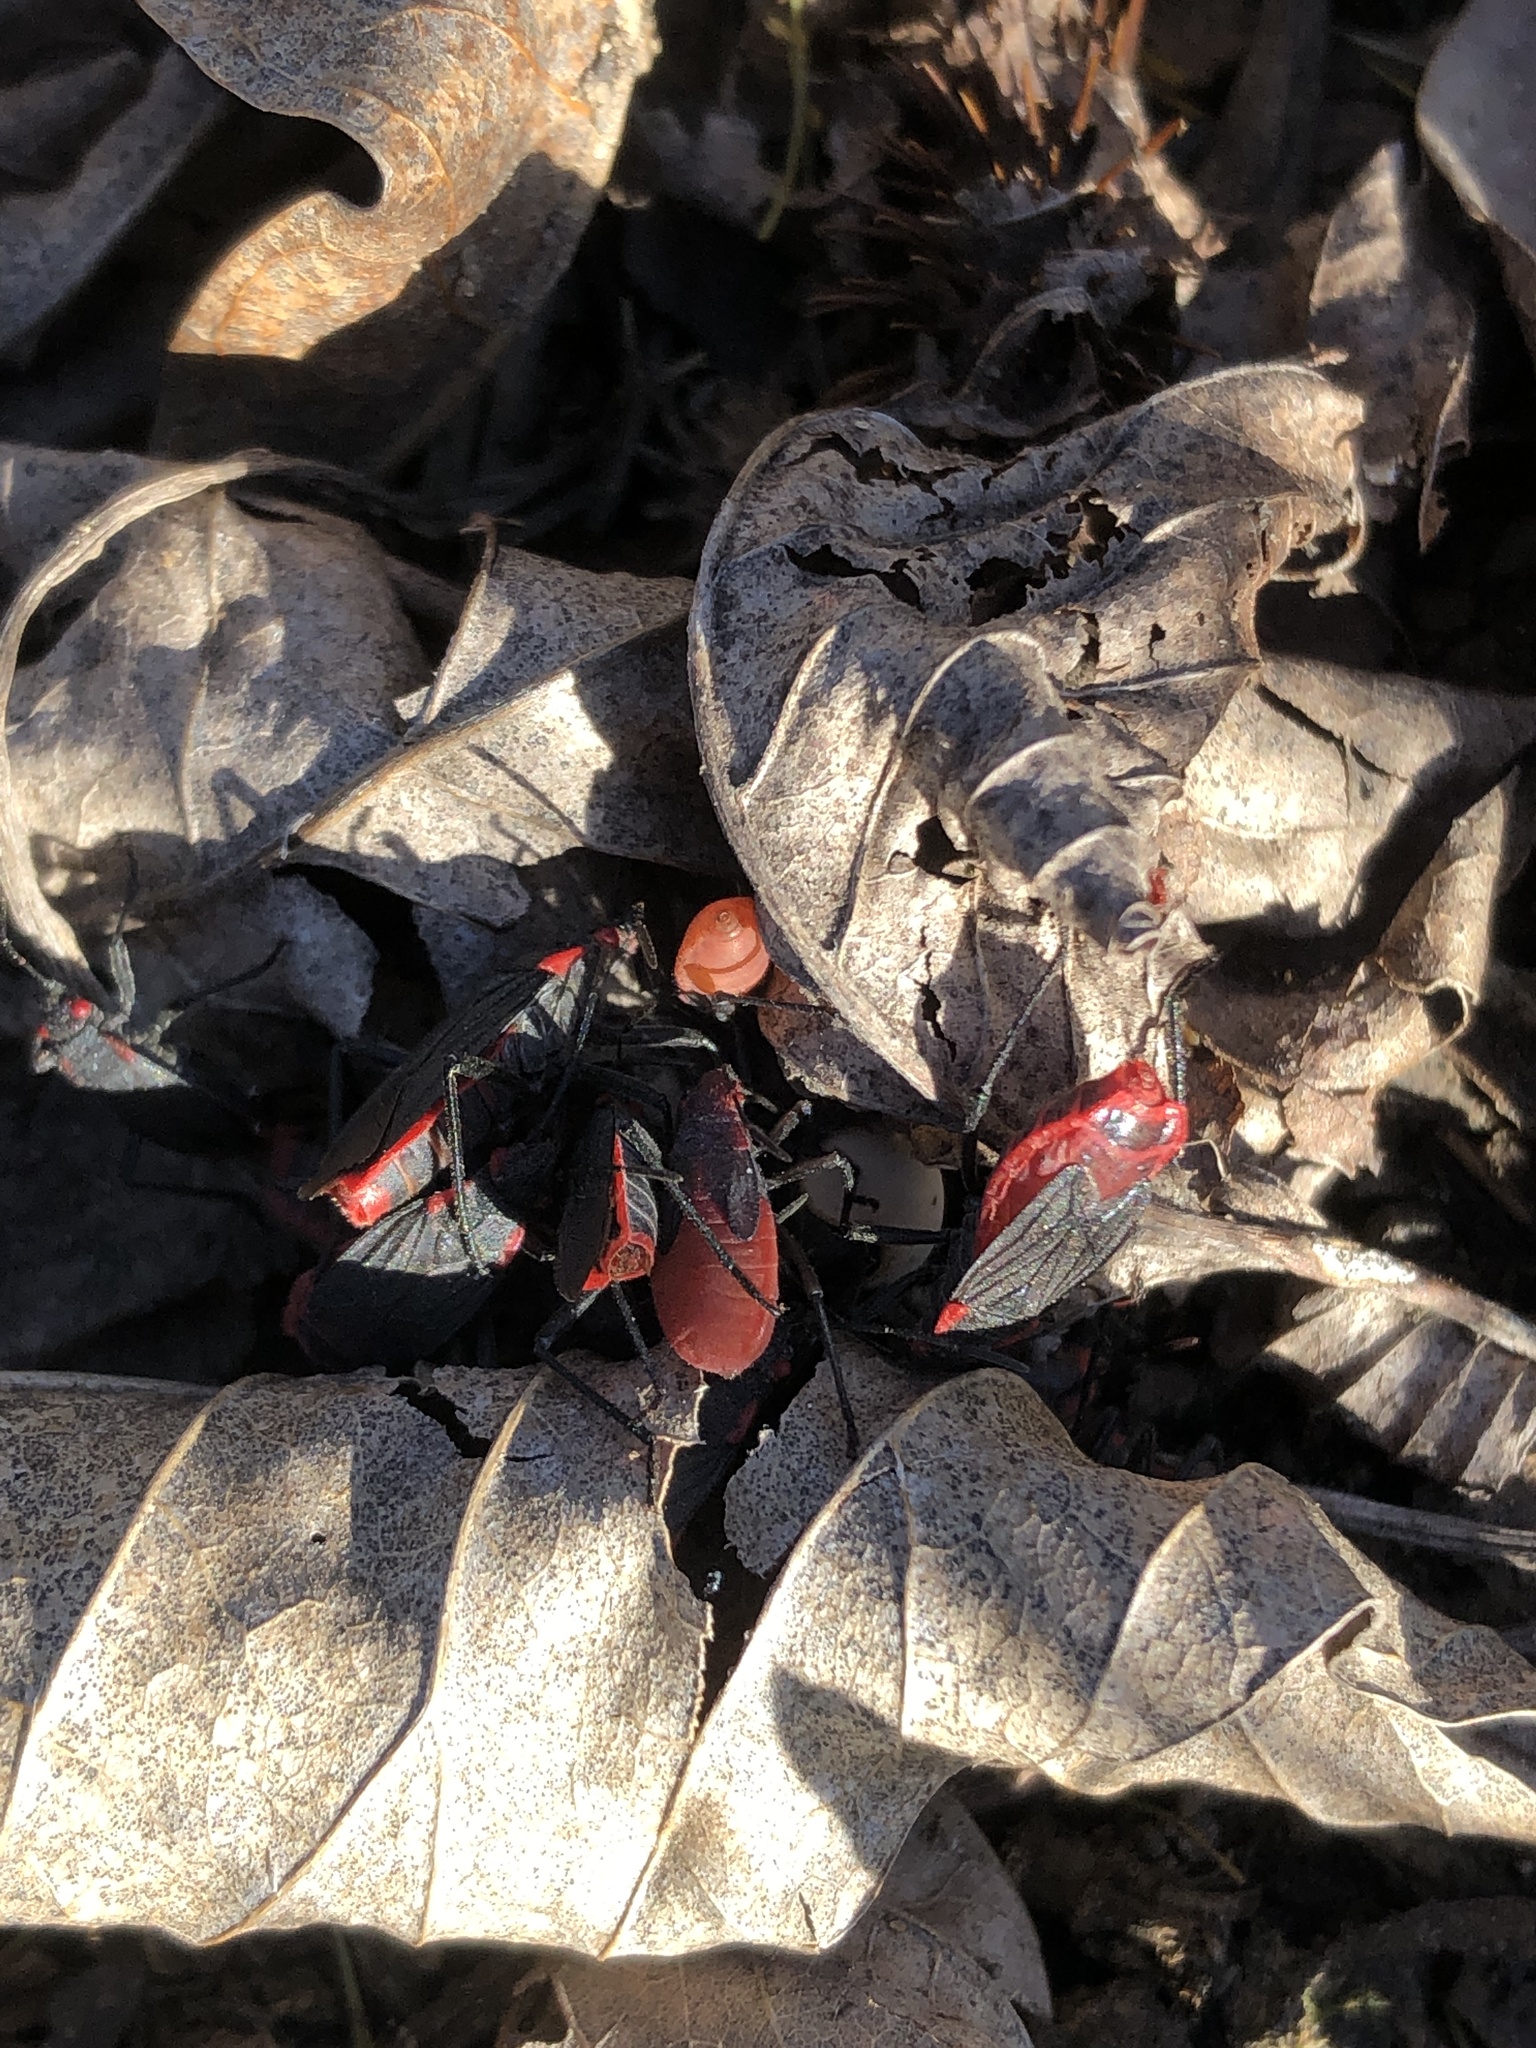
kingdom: Animalia
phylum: Arthropoda
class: Insecta
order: Hemiptera
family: Rhopalidae
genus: Jadera
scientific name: Jadera haematoloma
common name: Red-shouldered bug
